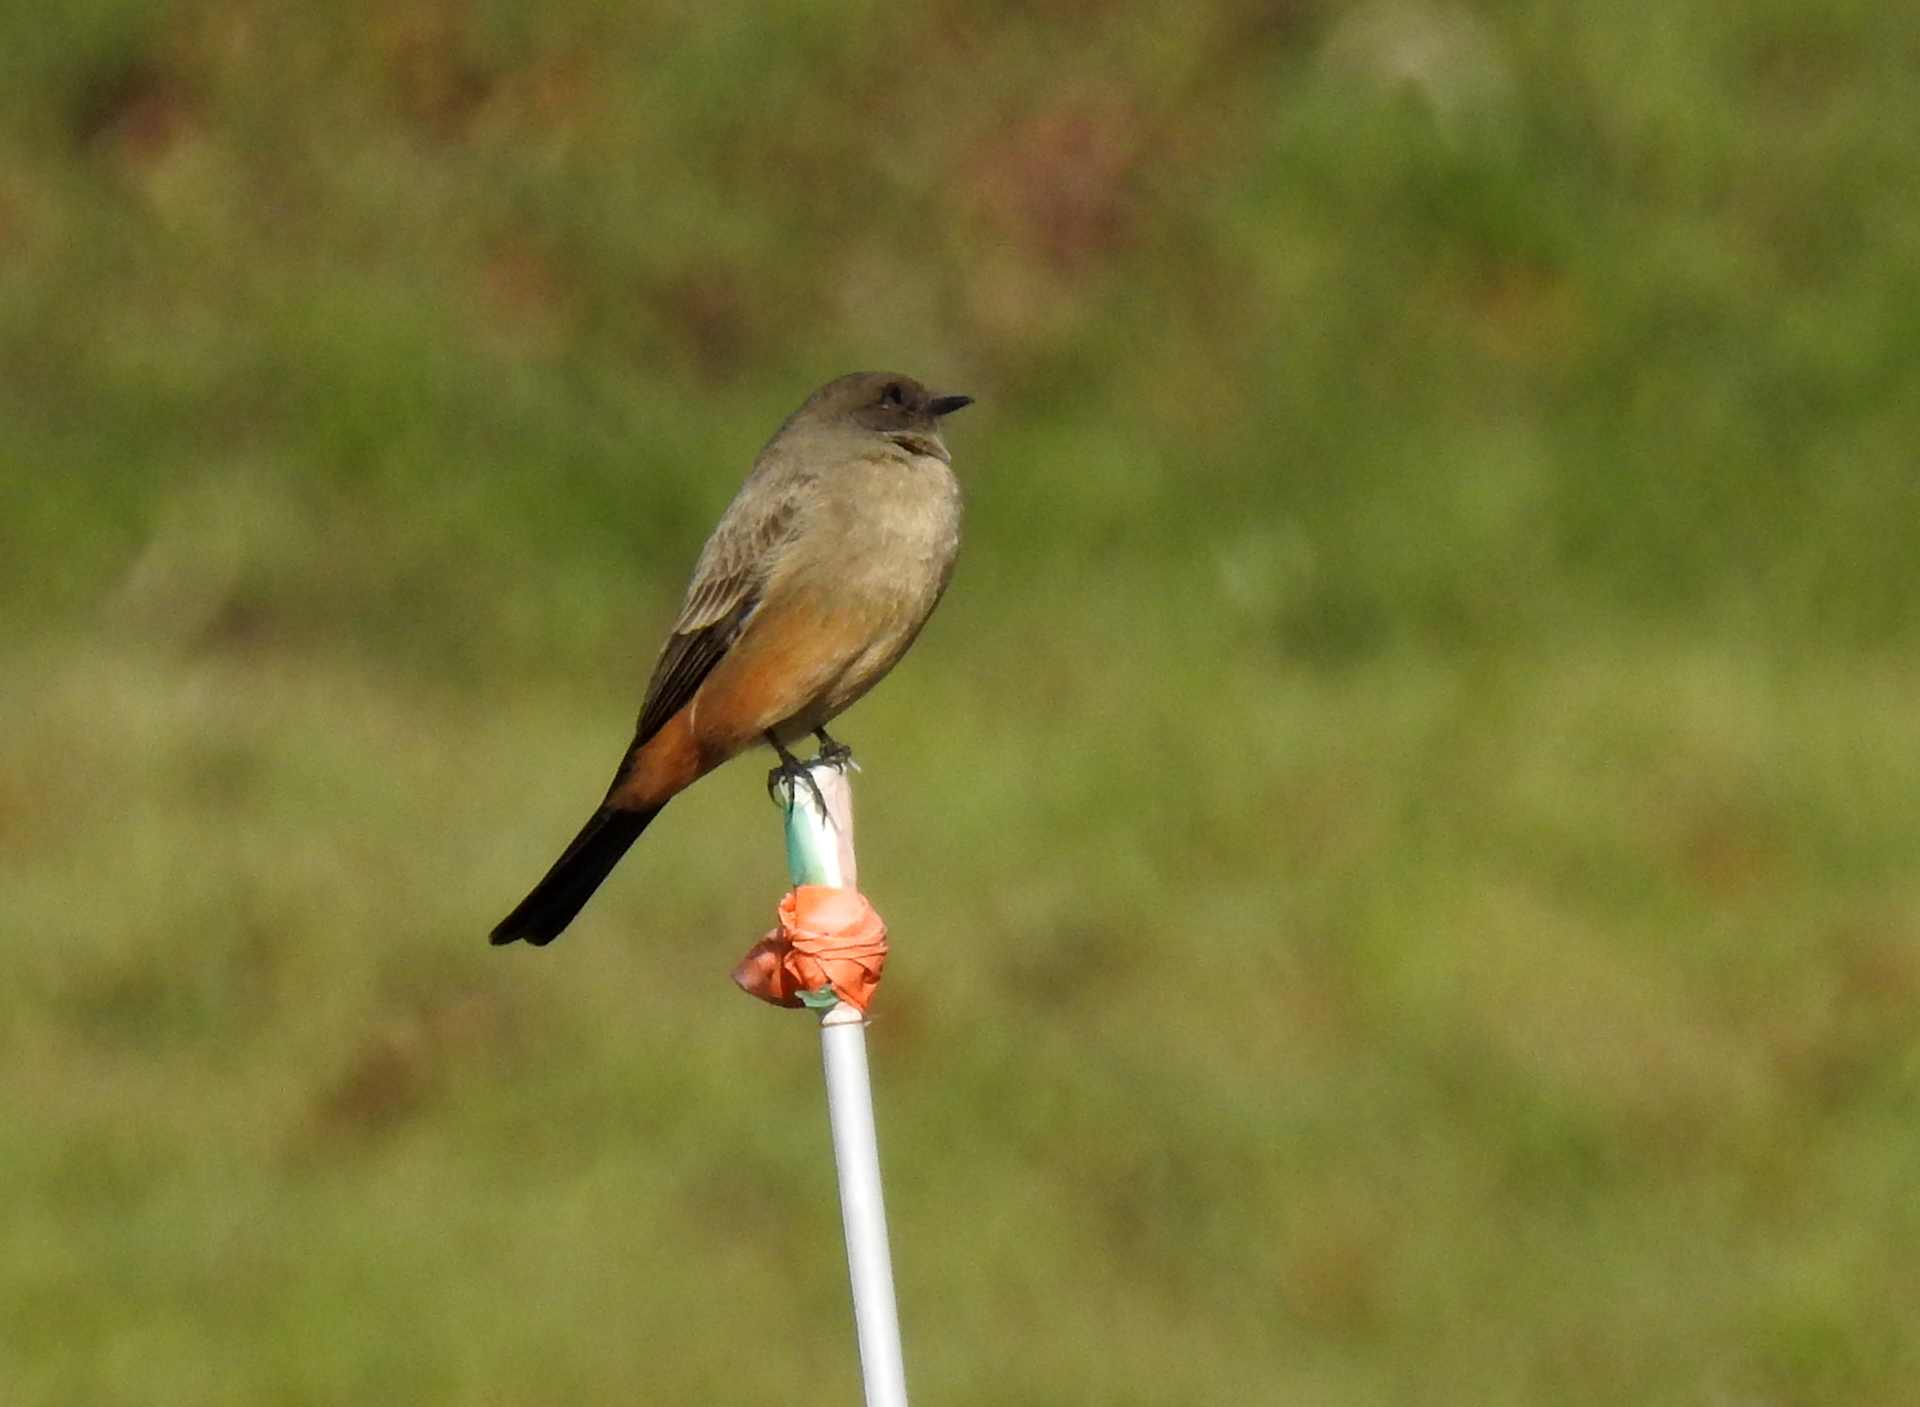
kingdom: Animalia
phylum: Chordata
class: Aves
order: Passeriformes
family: Tyrannidae
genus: Sayornis
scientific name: Sayornis saya
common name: Say's phoebe
